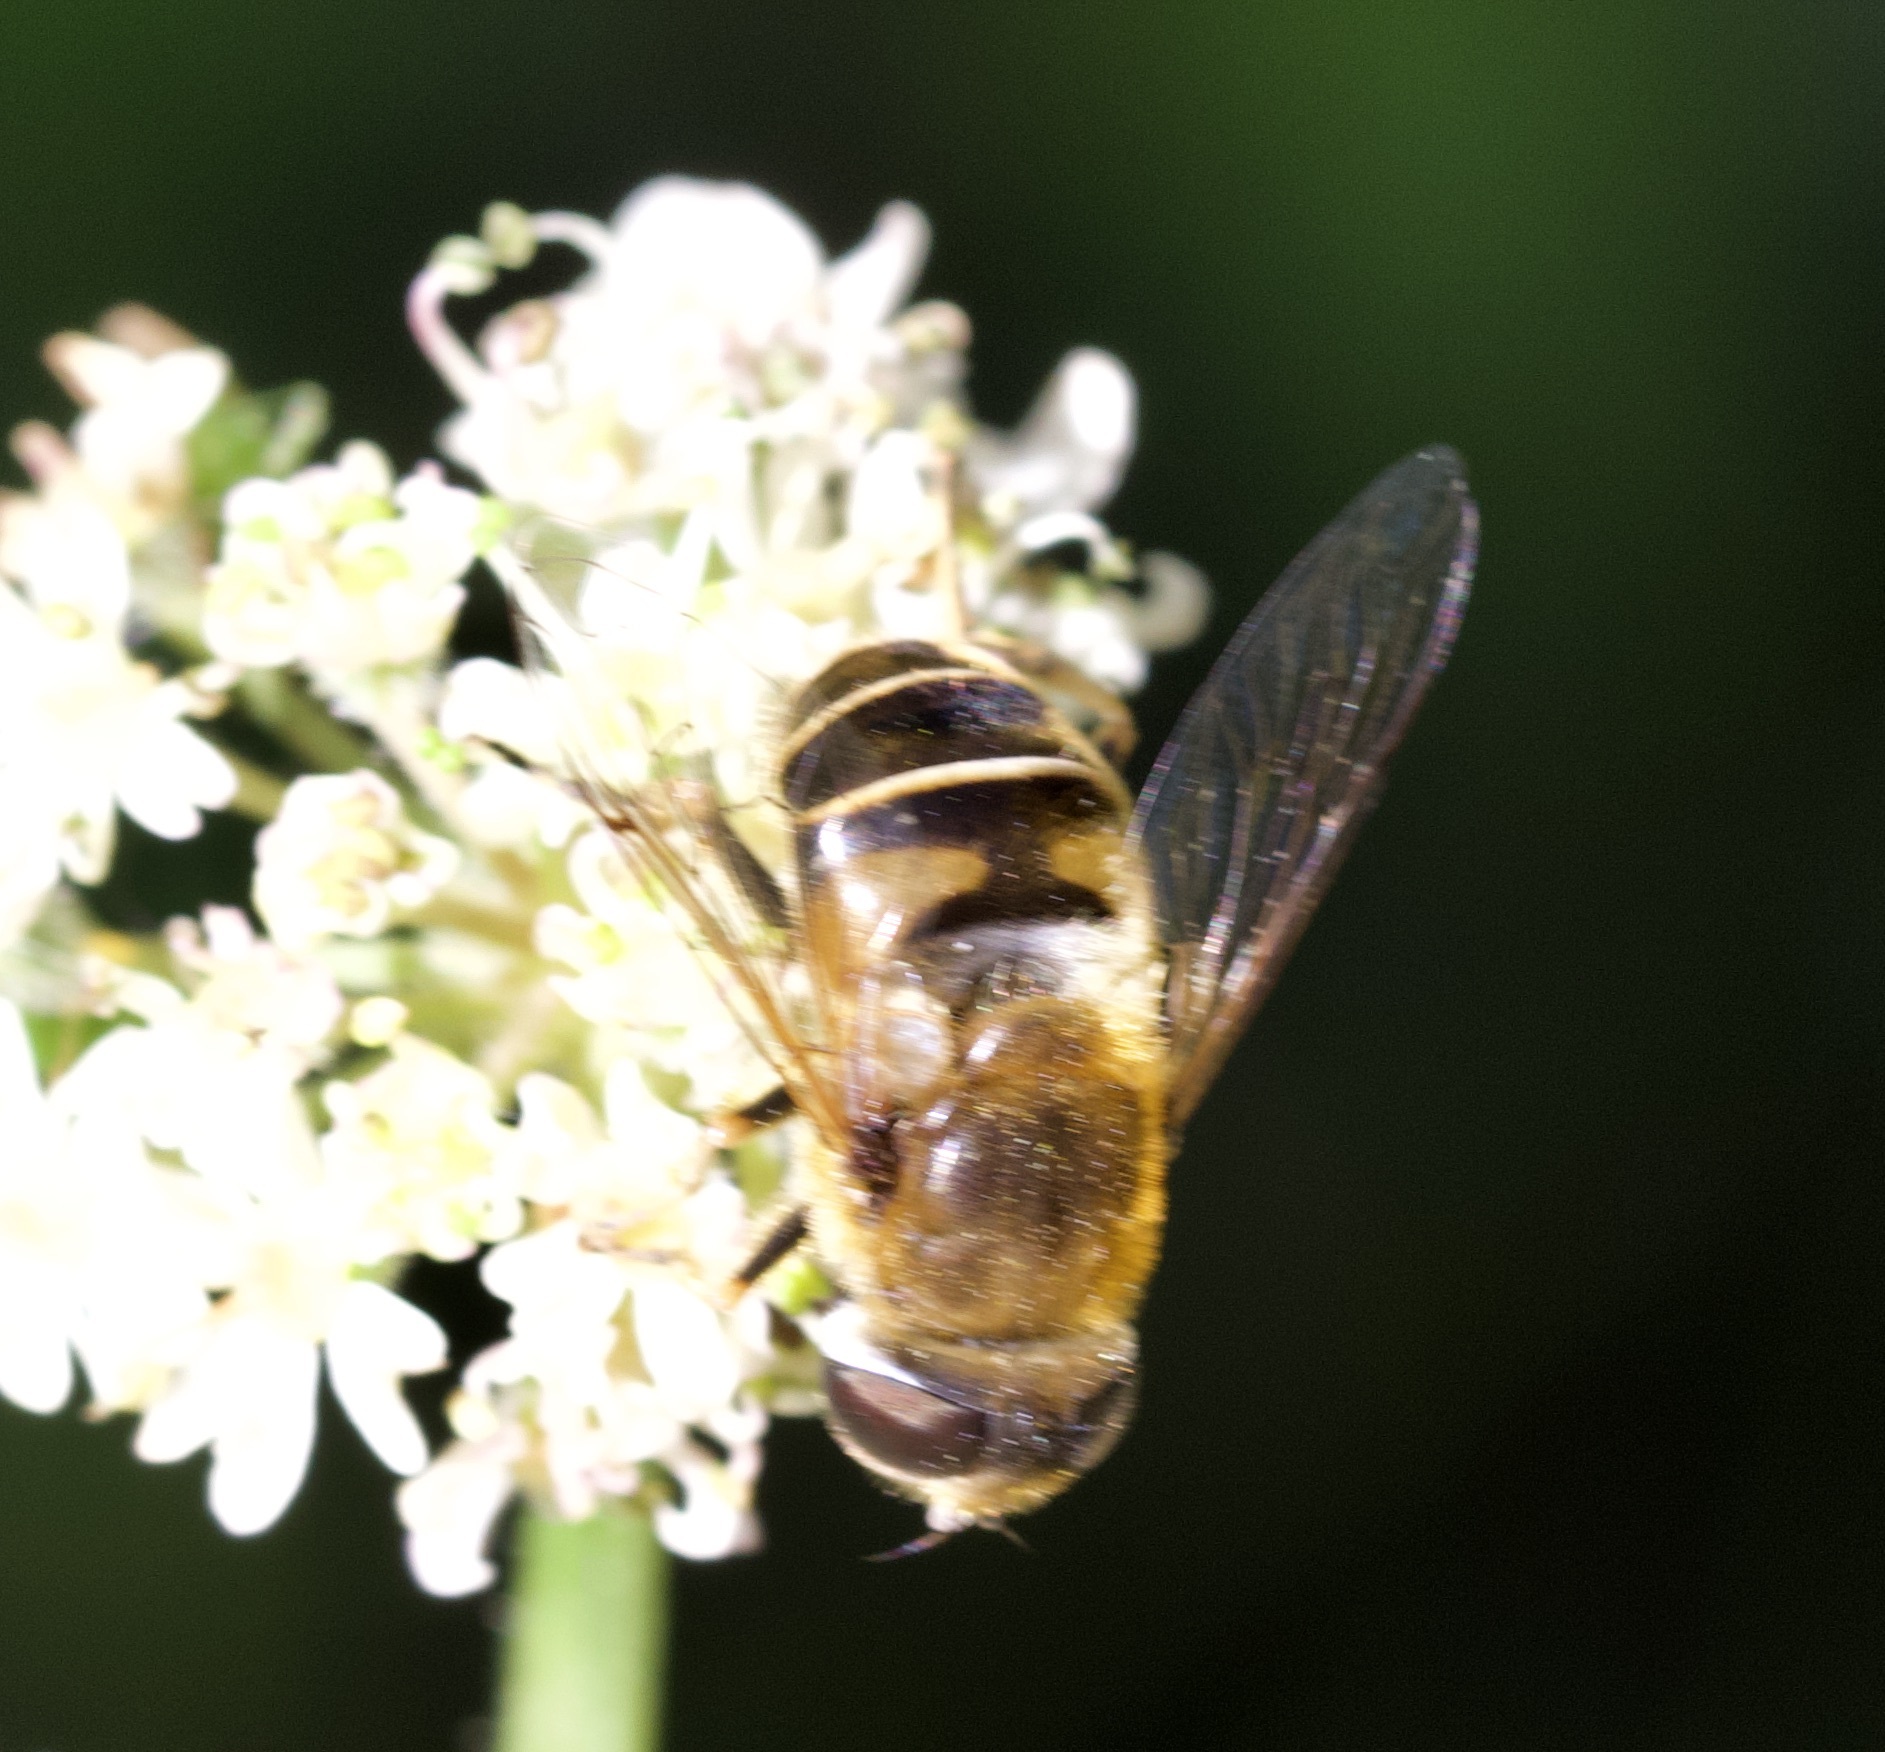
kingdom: Animalia
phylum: Arthropoda
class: Insecta
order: Diptera
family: Syrphidae
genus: Eristalis
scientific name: Eristalis nemorum
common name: Orange-spined drone fly
